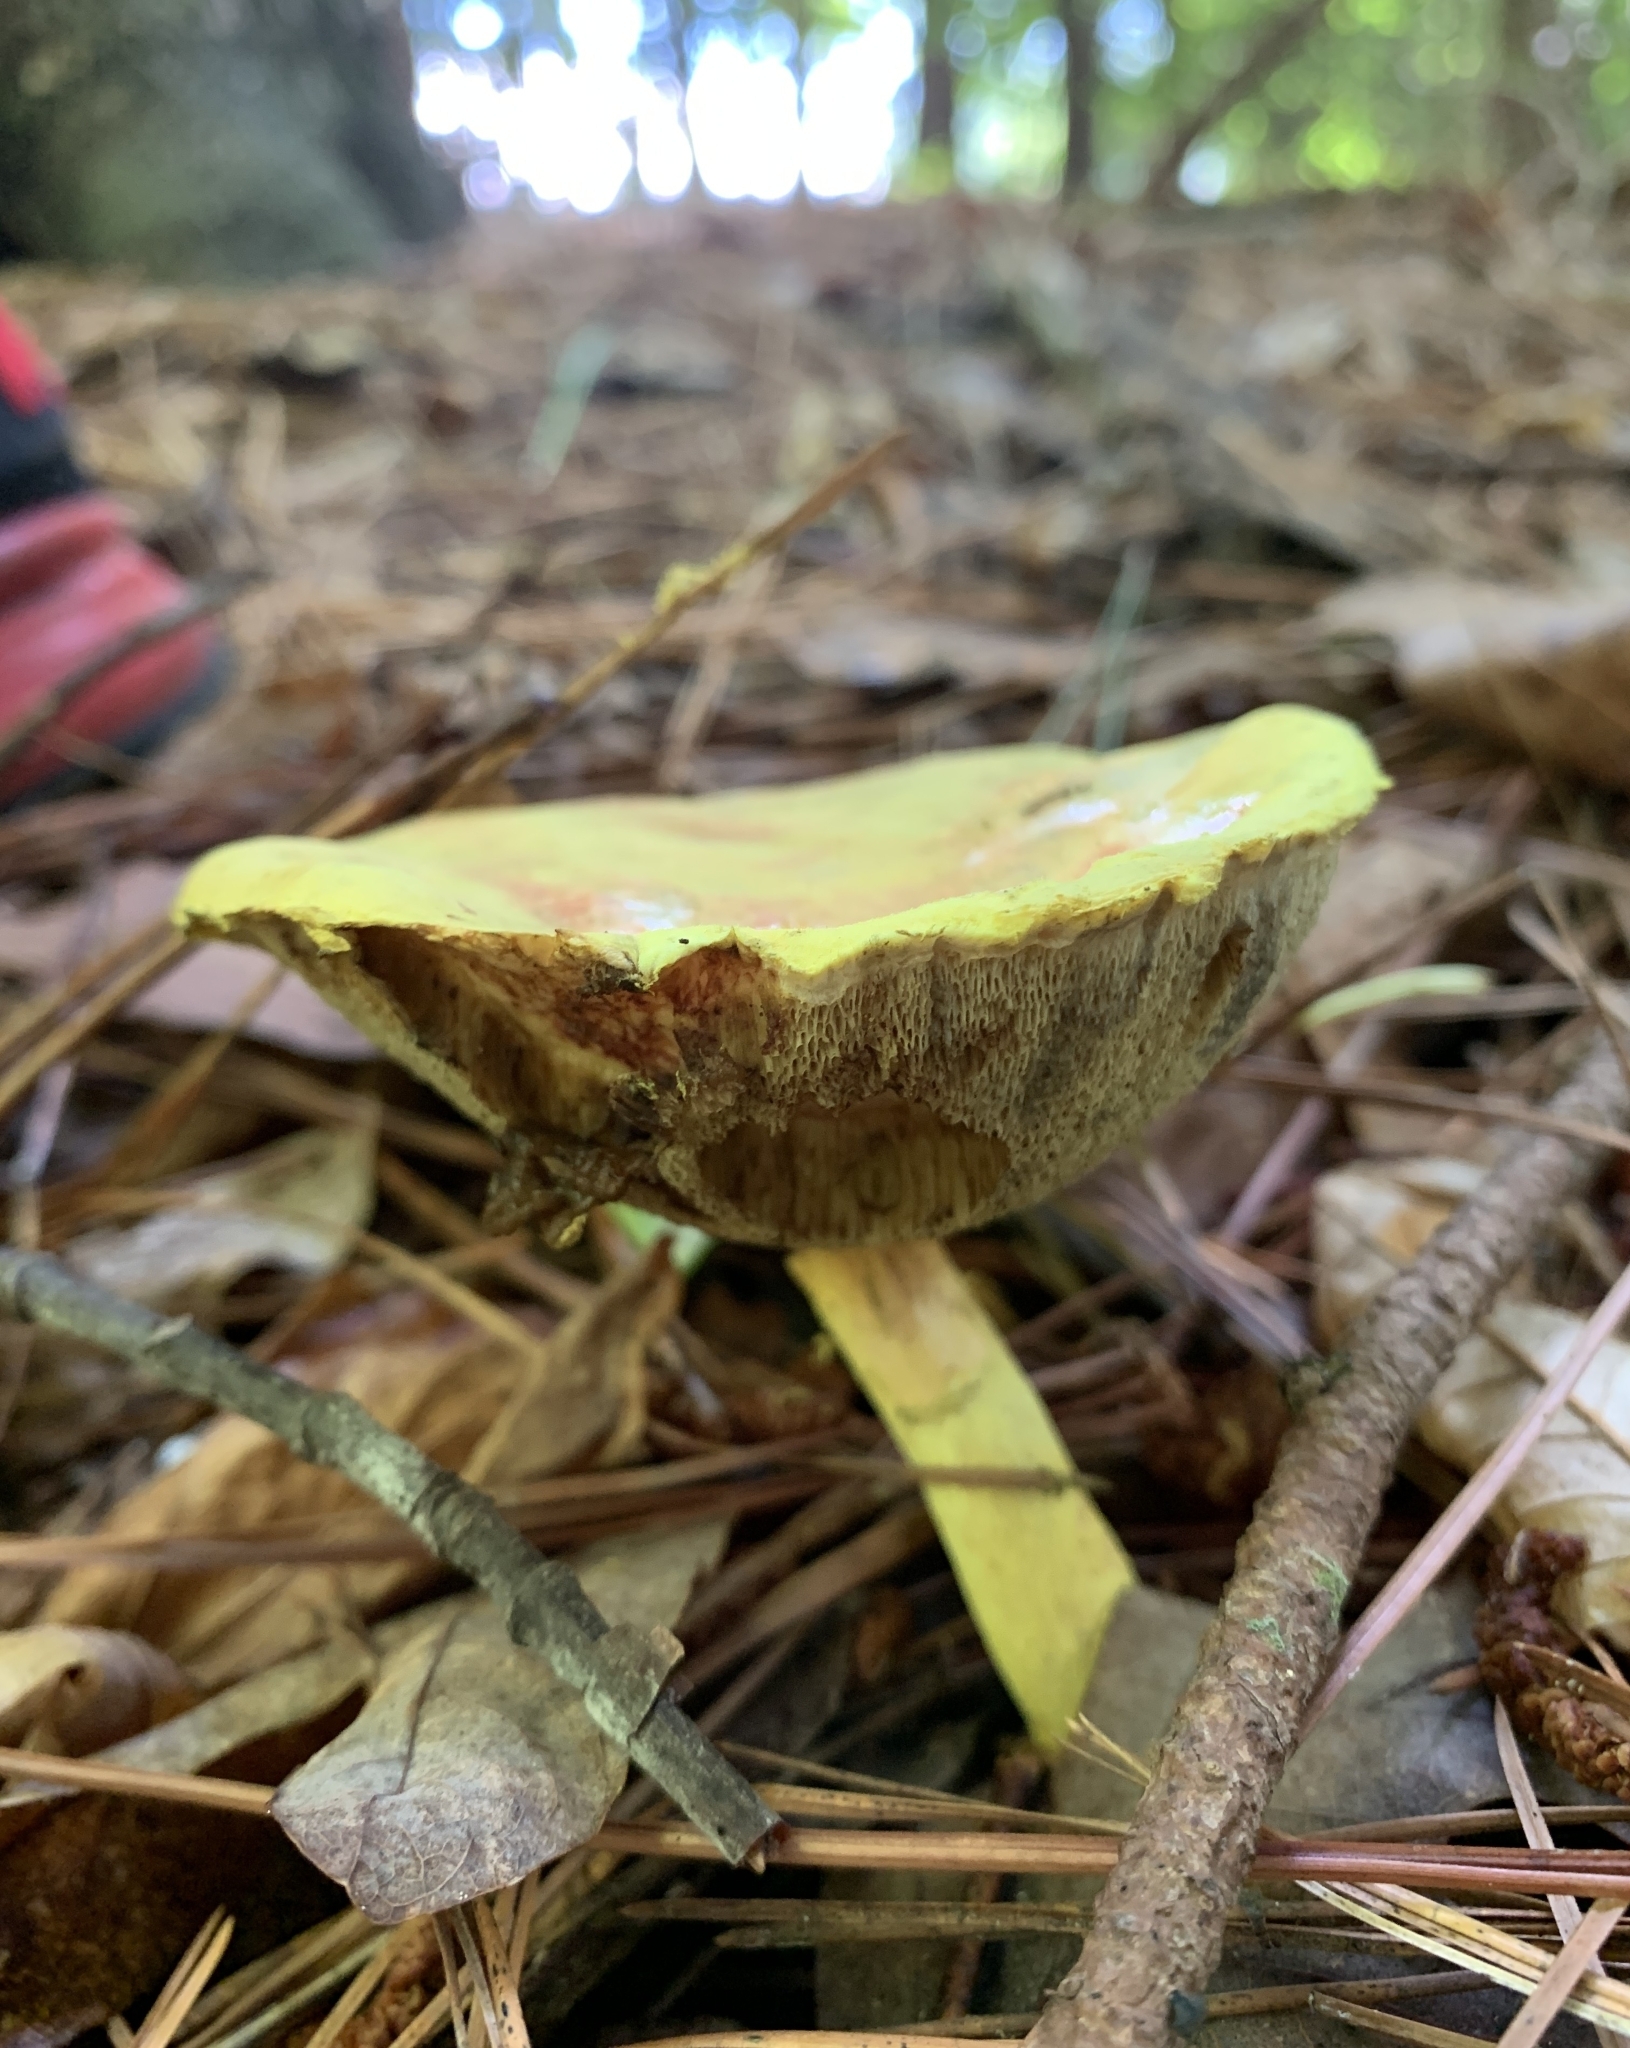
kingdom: Fungi
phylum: Basidiomycota
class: Agaricomycetes
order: Boletales
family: Boletaceae
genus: Pulveroboletus
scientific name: Pulveroboletus ravenelii
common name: Powdery sulfur bolete
